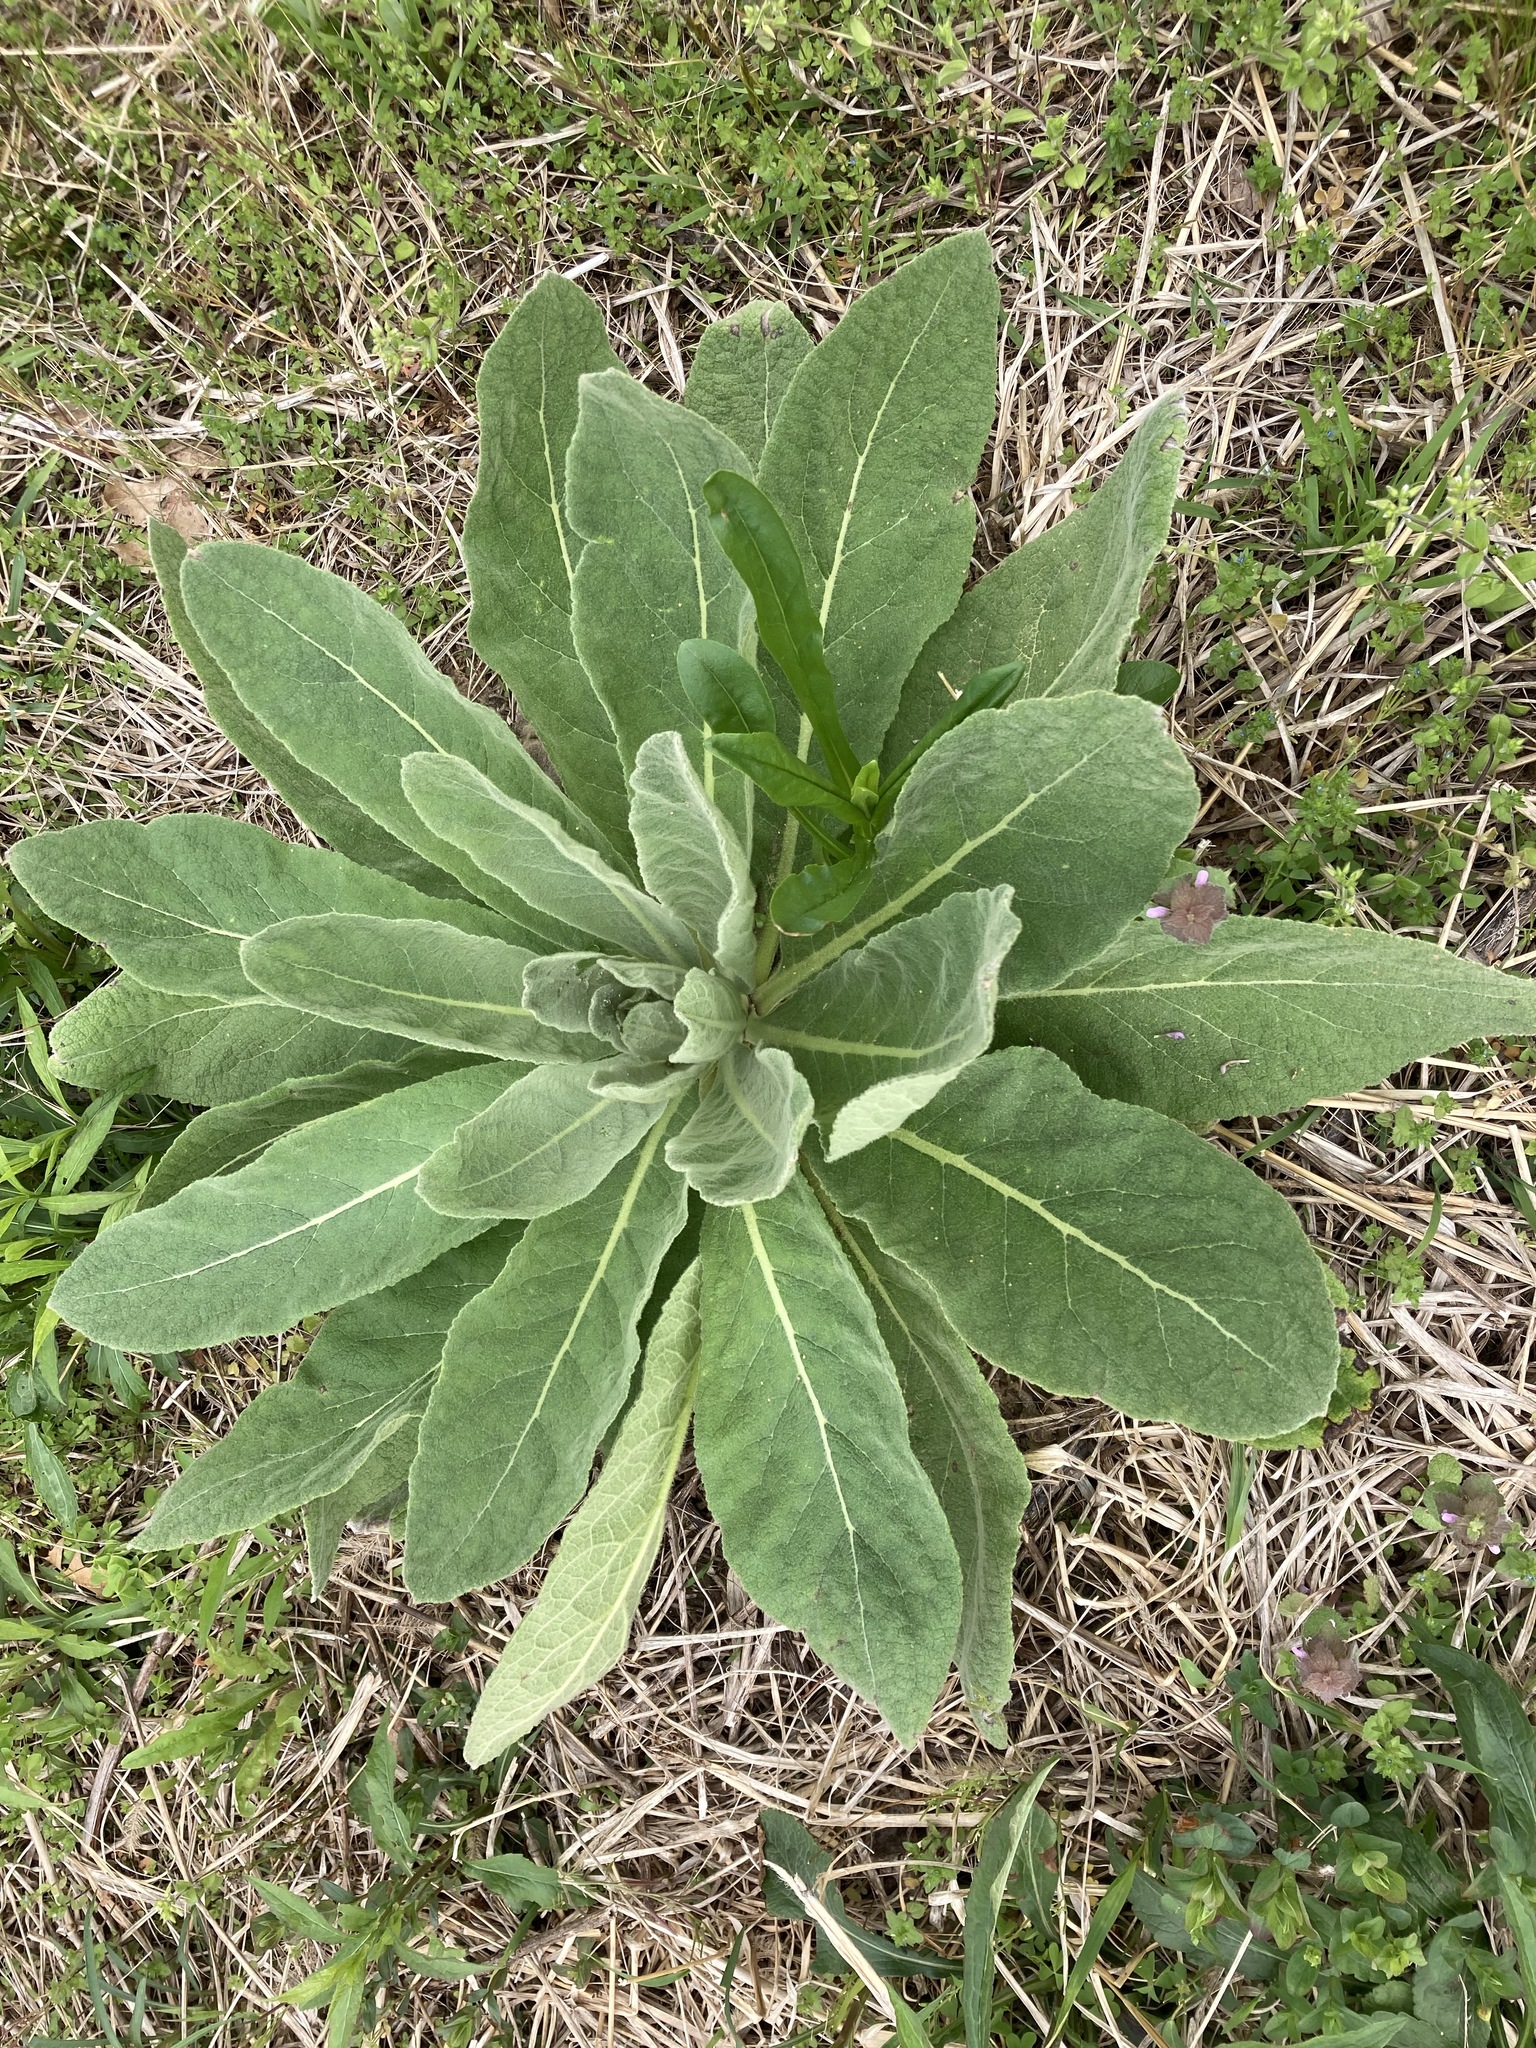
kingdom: Plantae
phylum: Tracheophyta
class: Magnoliopsida
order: Lamiales
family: Scrophulariaceae
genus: Verbascum
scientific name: Verbascum thapsus
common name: Common mullein
